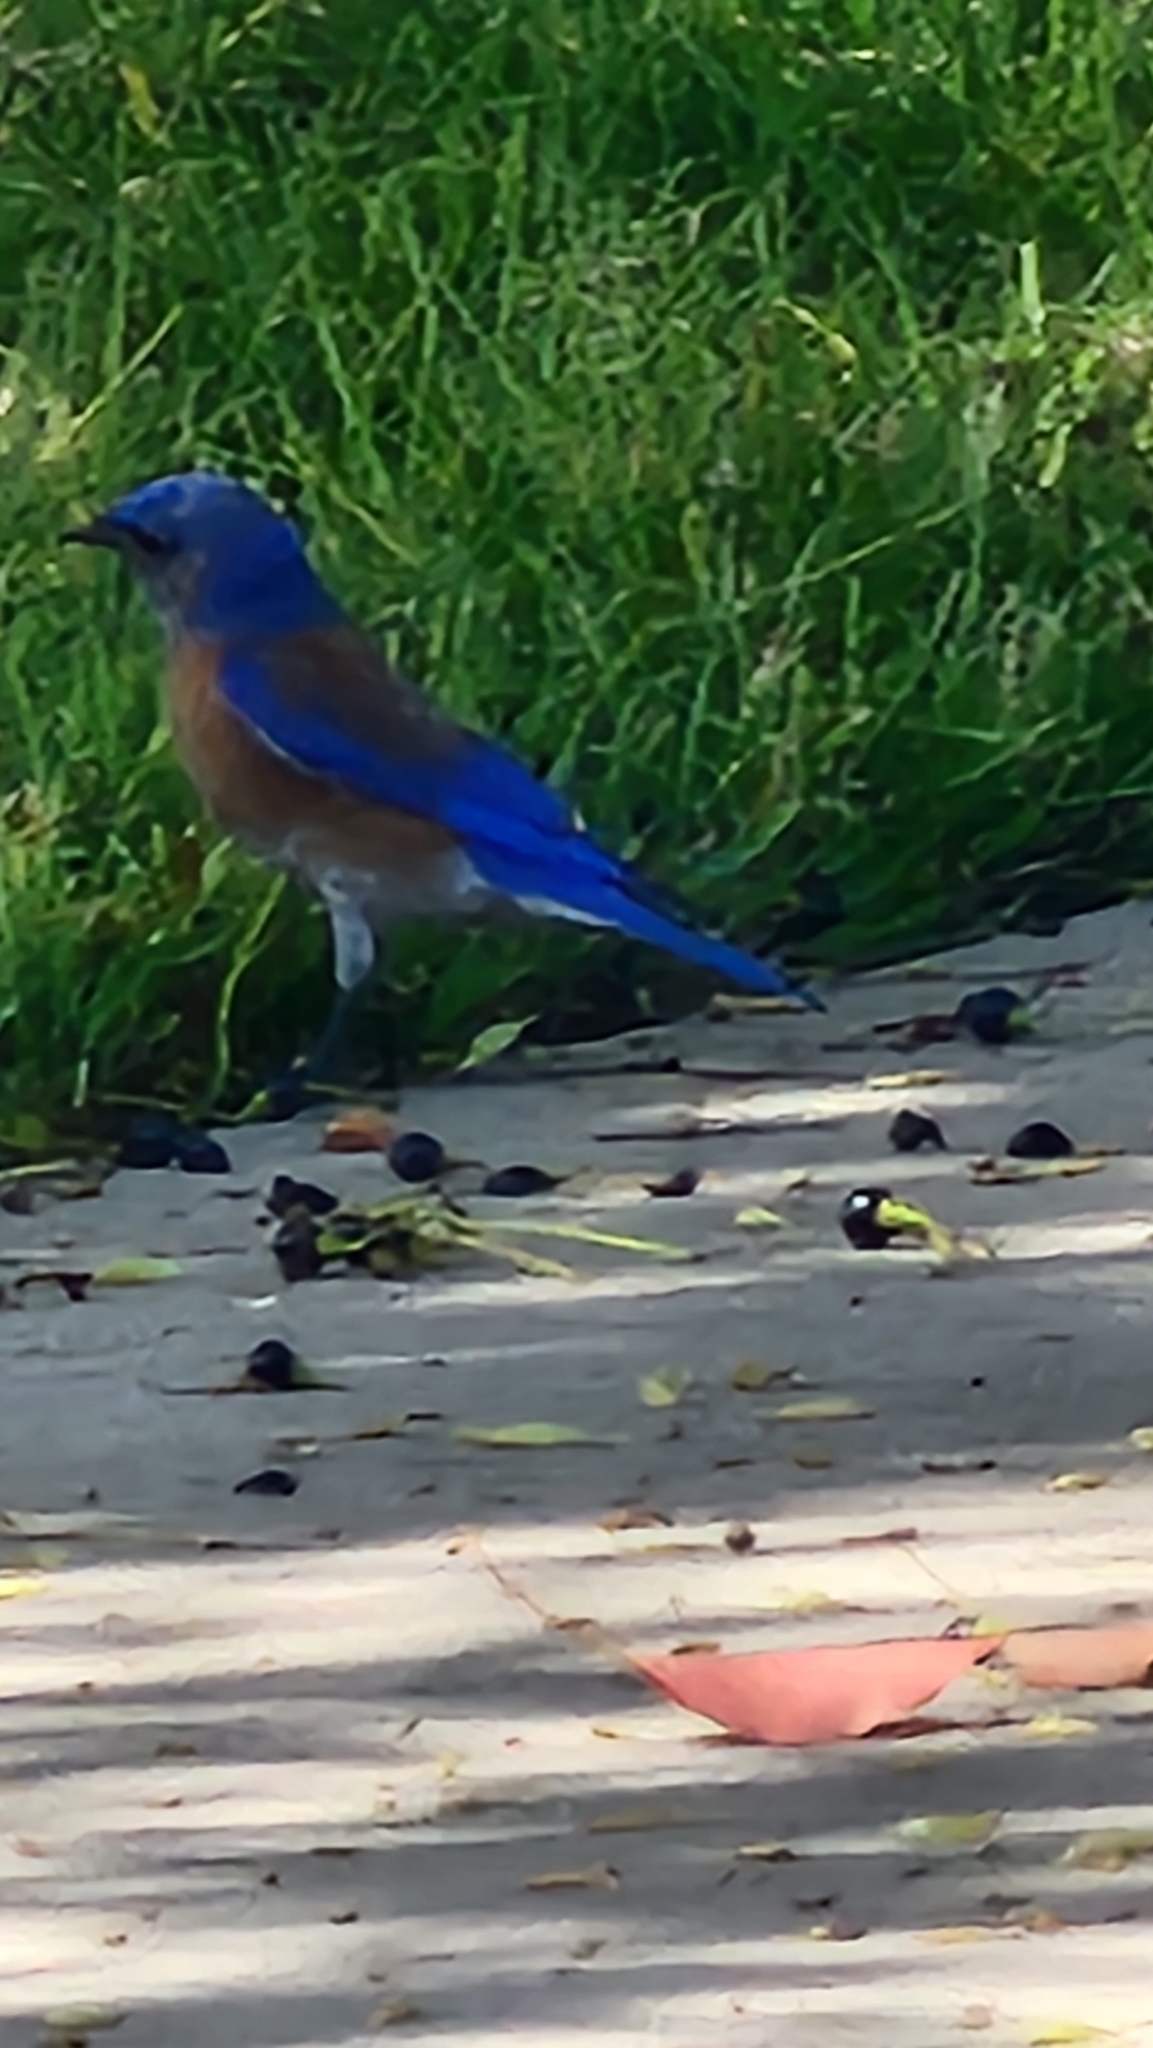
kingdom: Animalia
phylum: Chordata
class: Aves
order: Passeriformes
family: Turdidae
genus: Sialia
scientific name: Sialia mexicana
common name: Western bluebird
